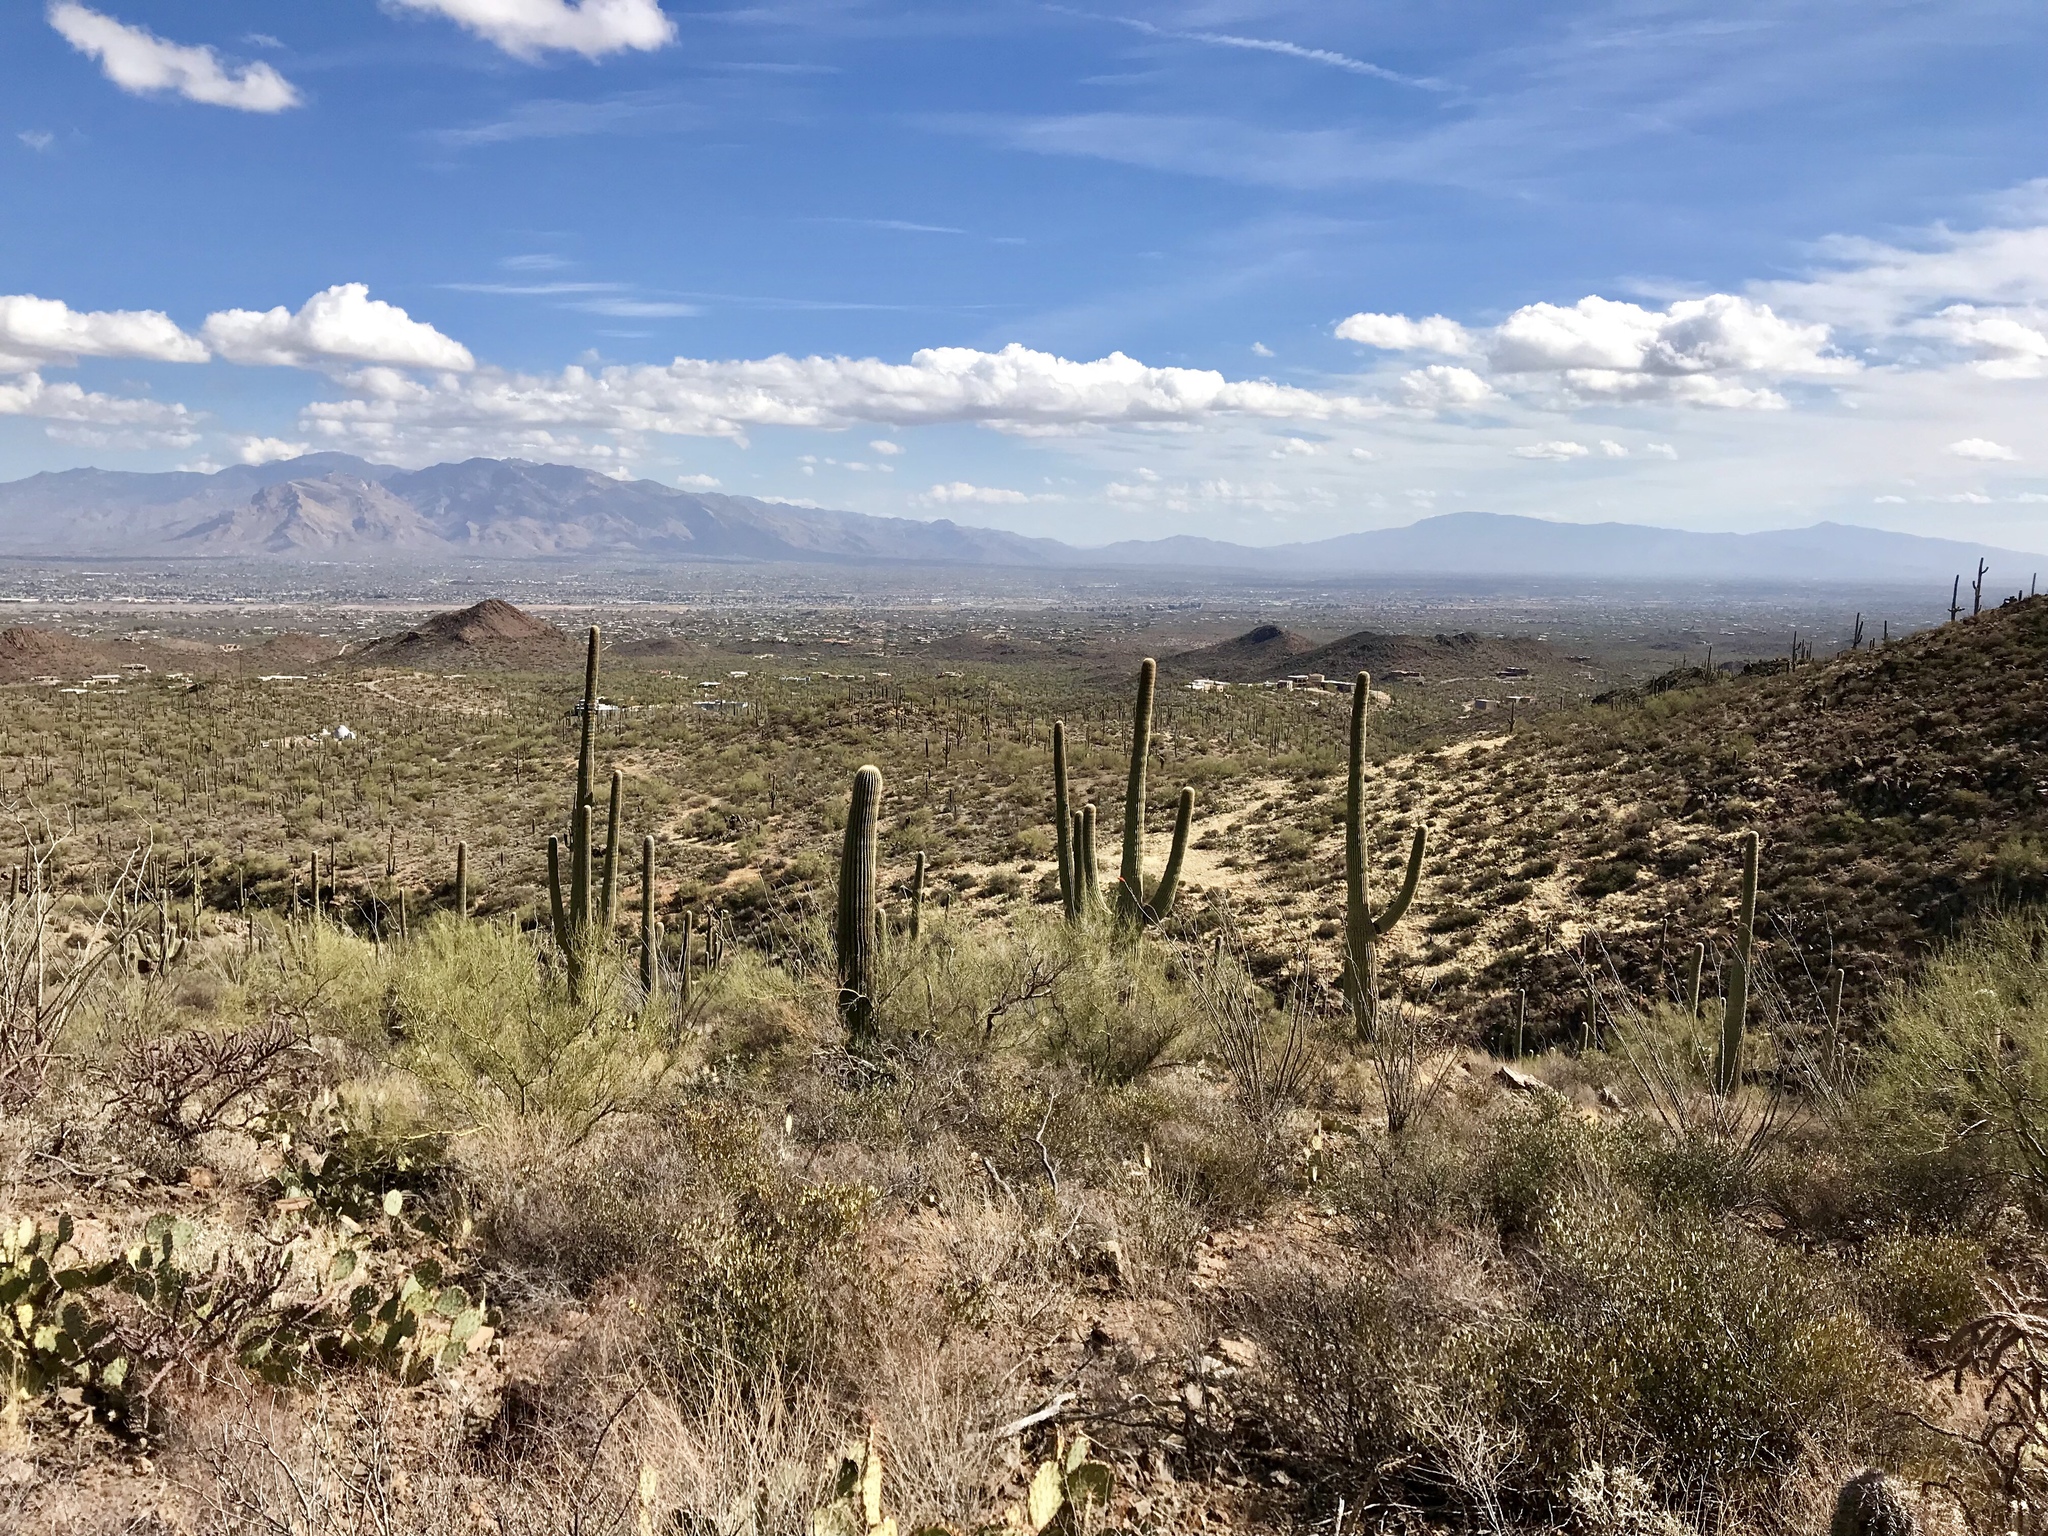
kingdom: Plantae
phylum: Tracheophyta
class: Magnoliopsida
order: Caryophyllales
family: Cactaceae
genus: Carnegiea
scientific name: Carnegiea gigantea
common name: Saguaro
